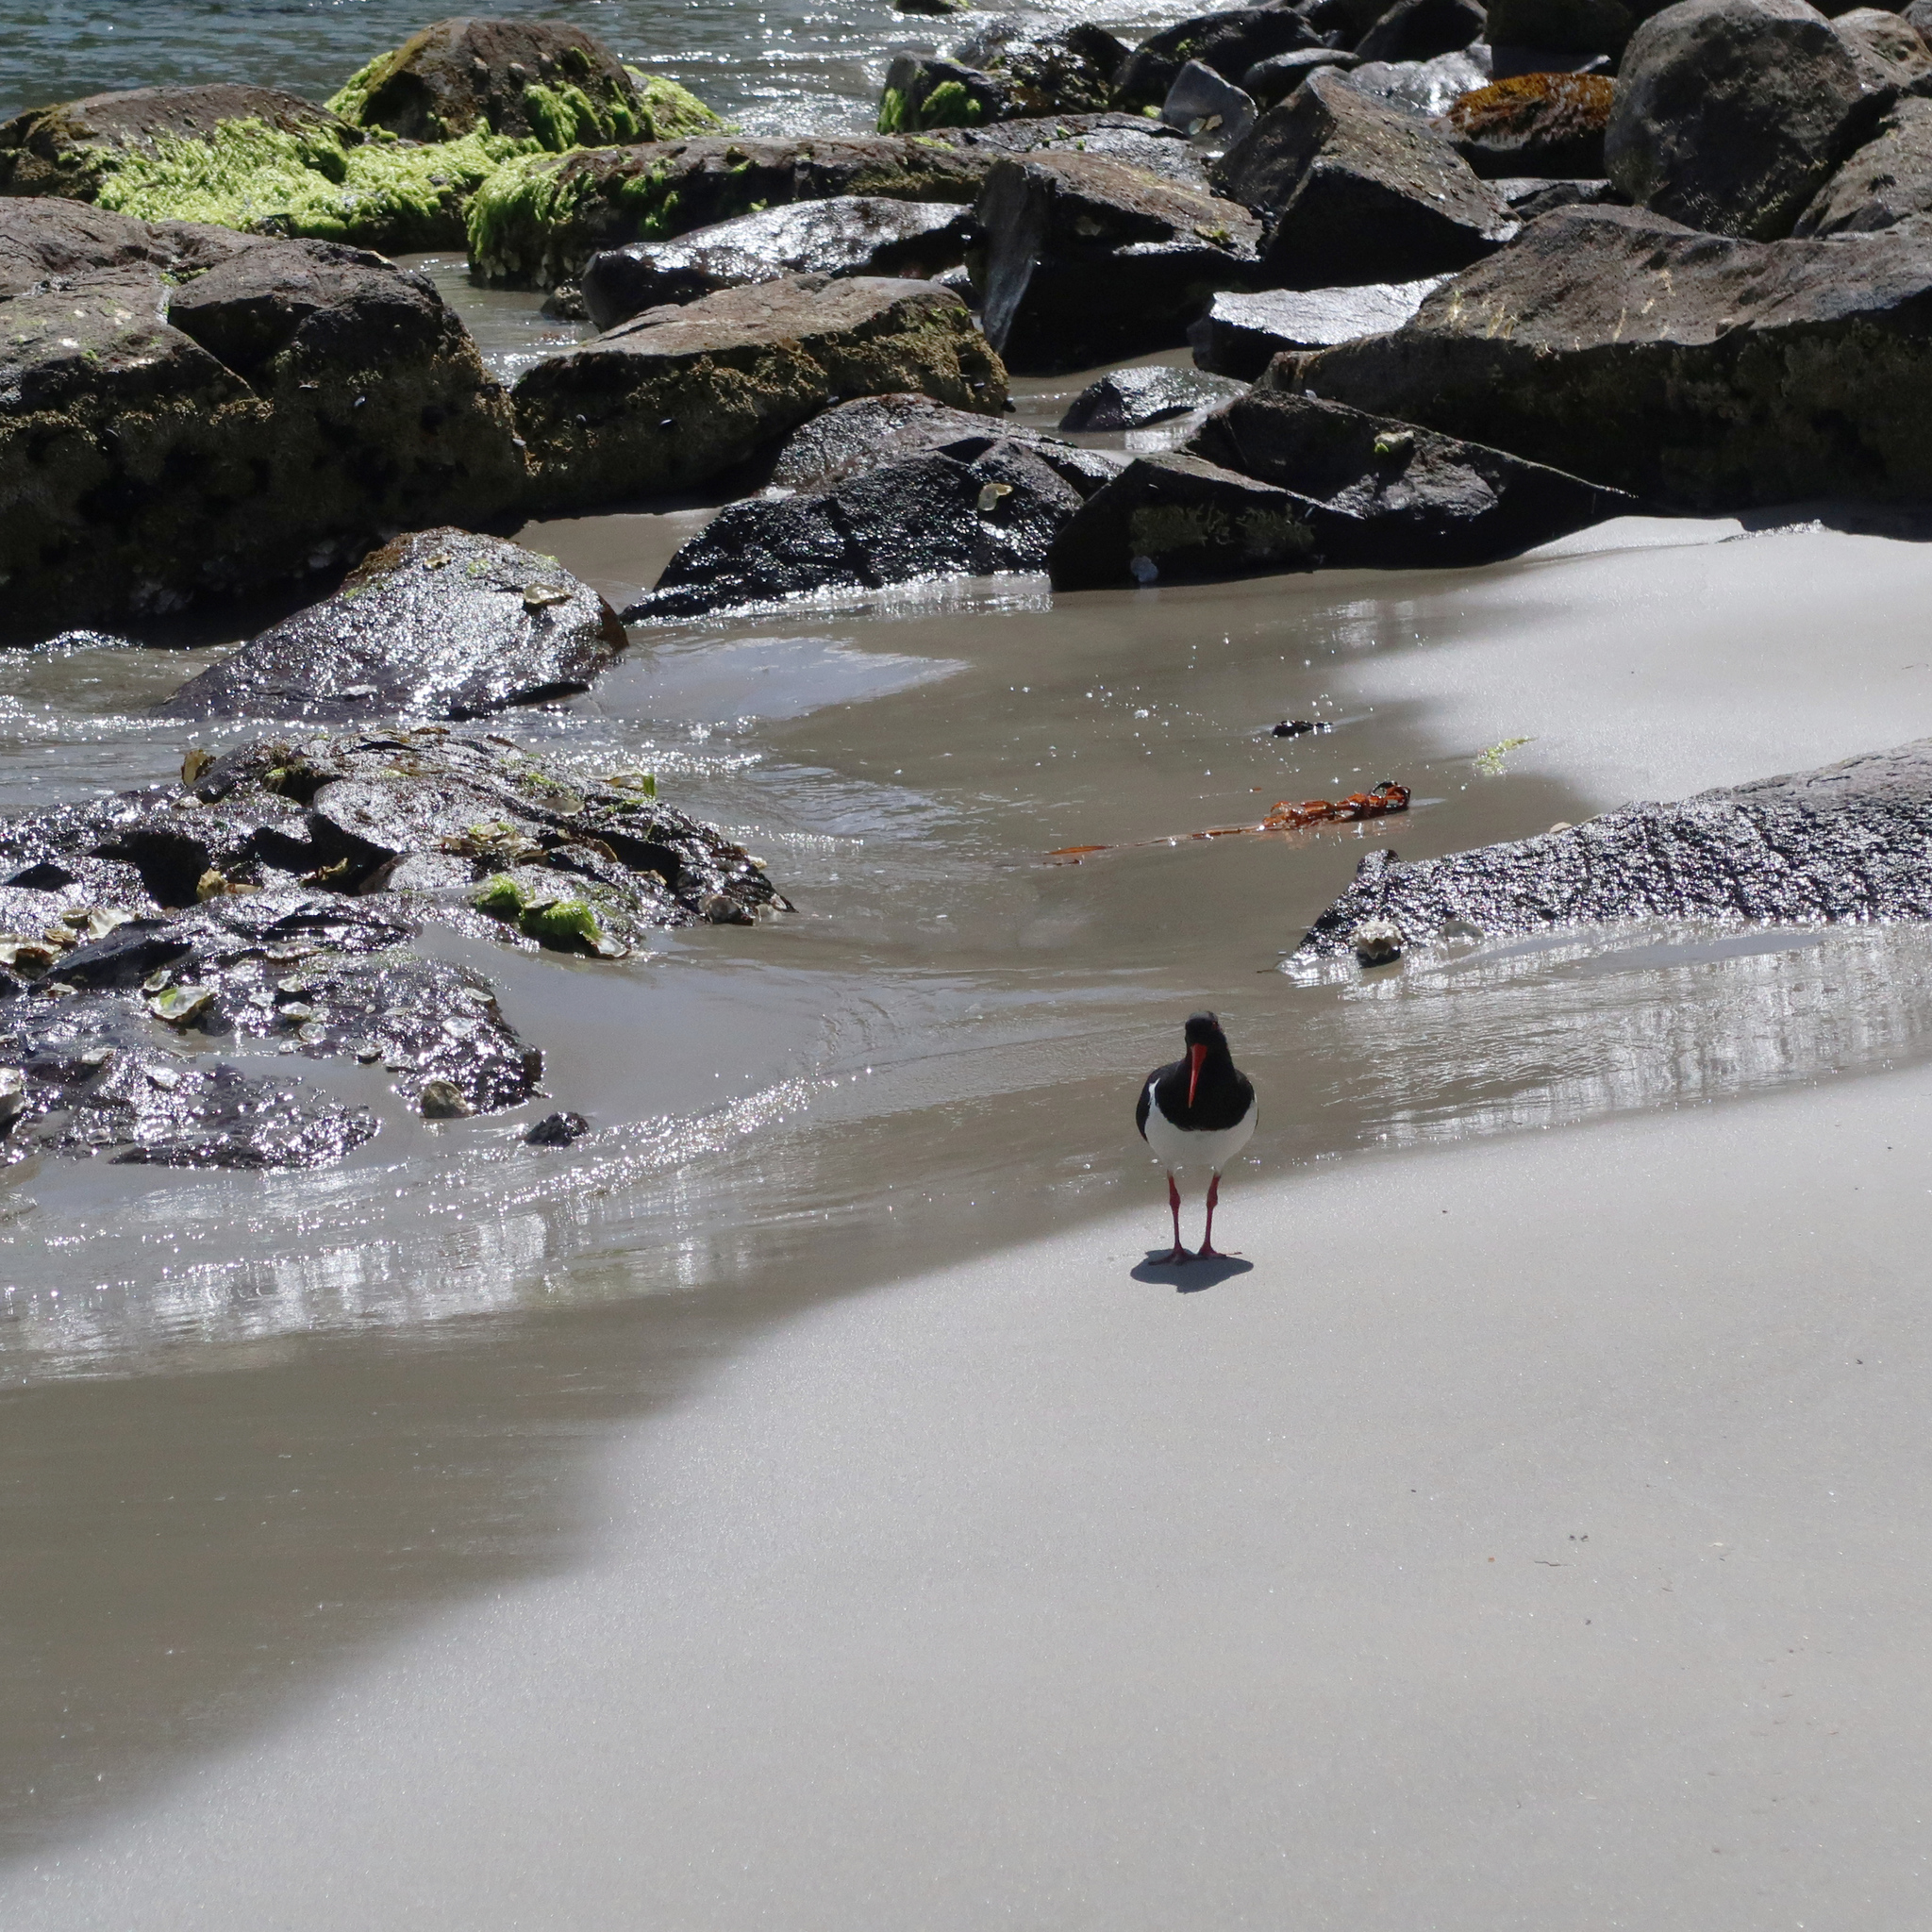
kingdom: Animalia
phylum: Chordata
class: Aves
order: Charadriiformes
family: Haematopodidae
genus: Haematopus
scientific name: Haematopus longirostris
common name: Pied oystercatcher
